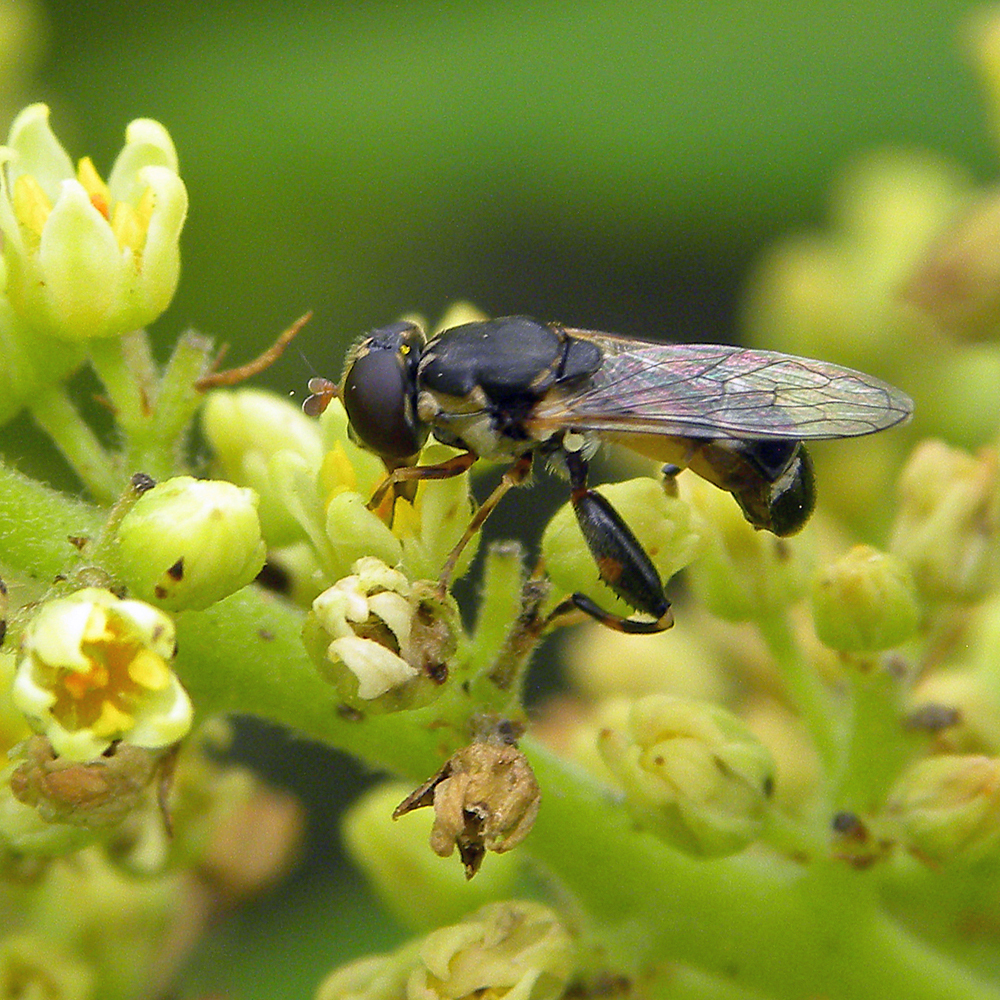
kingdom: Animalia
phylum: Arthropoda
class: Insecta
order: Diptera
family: Syrphidae
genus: Syritta
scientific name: Syritta pipiens
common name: Hover fly
